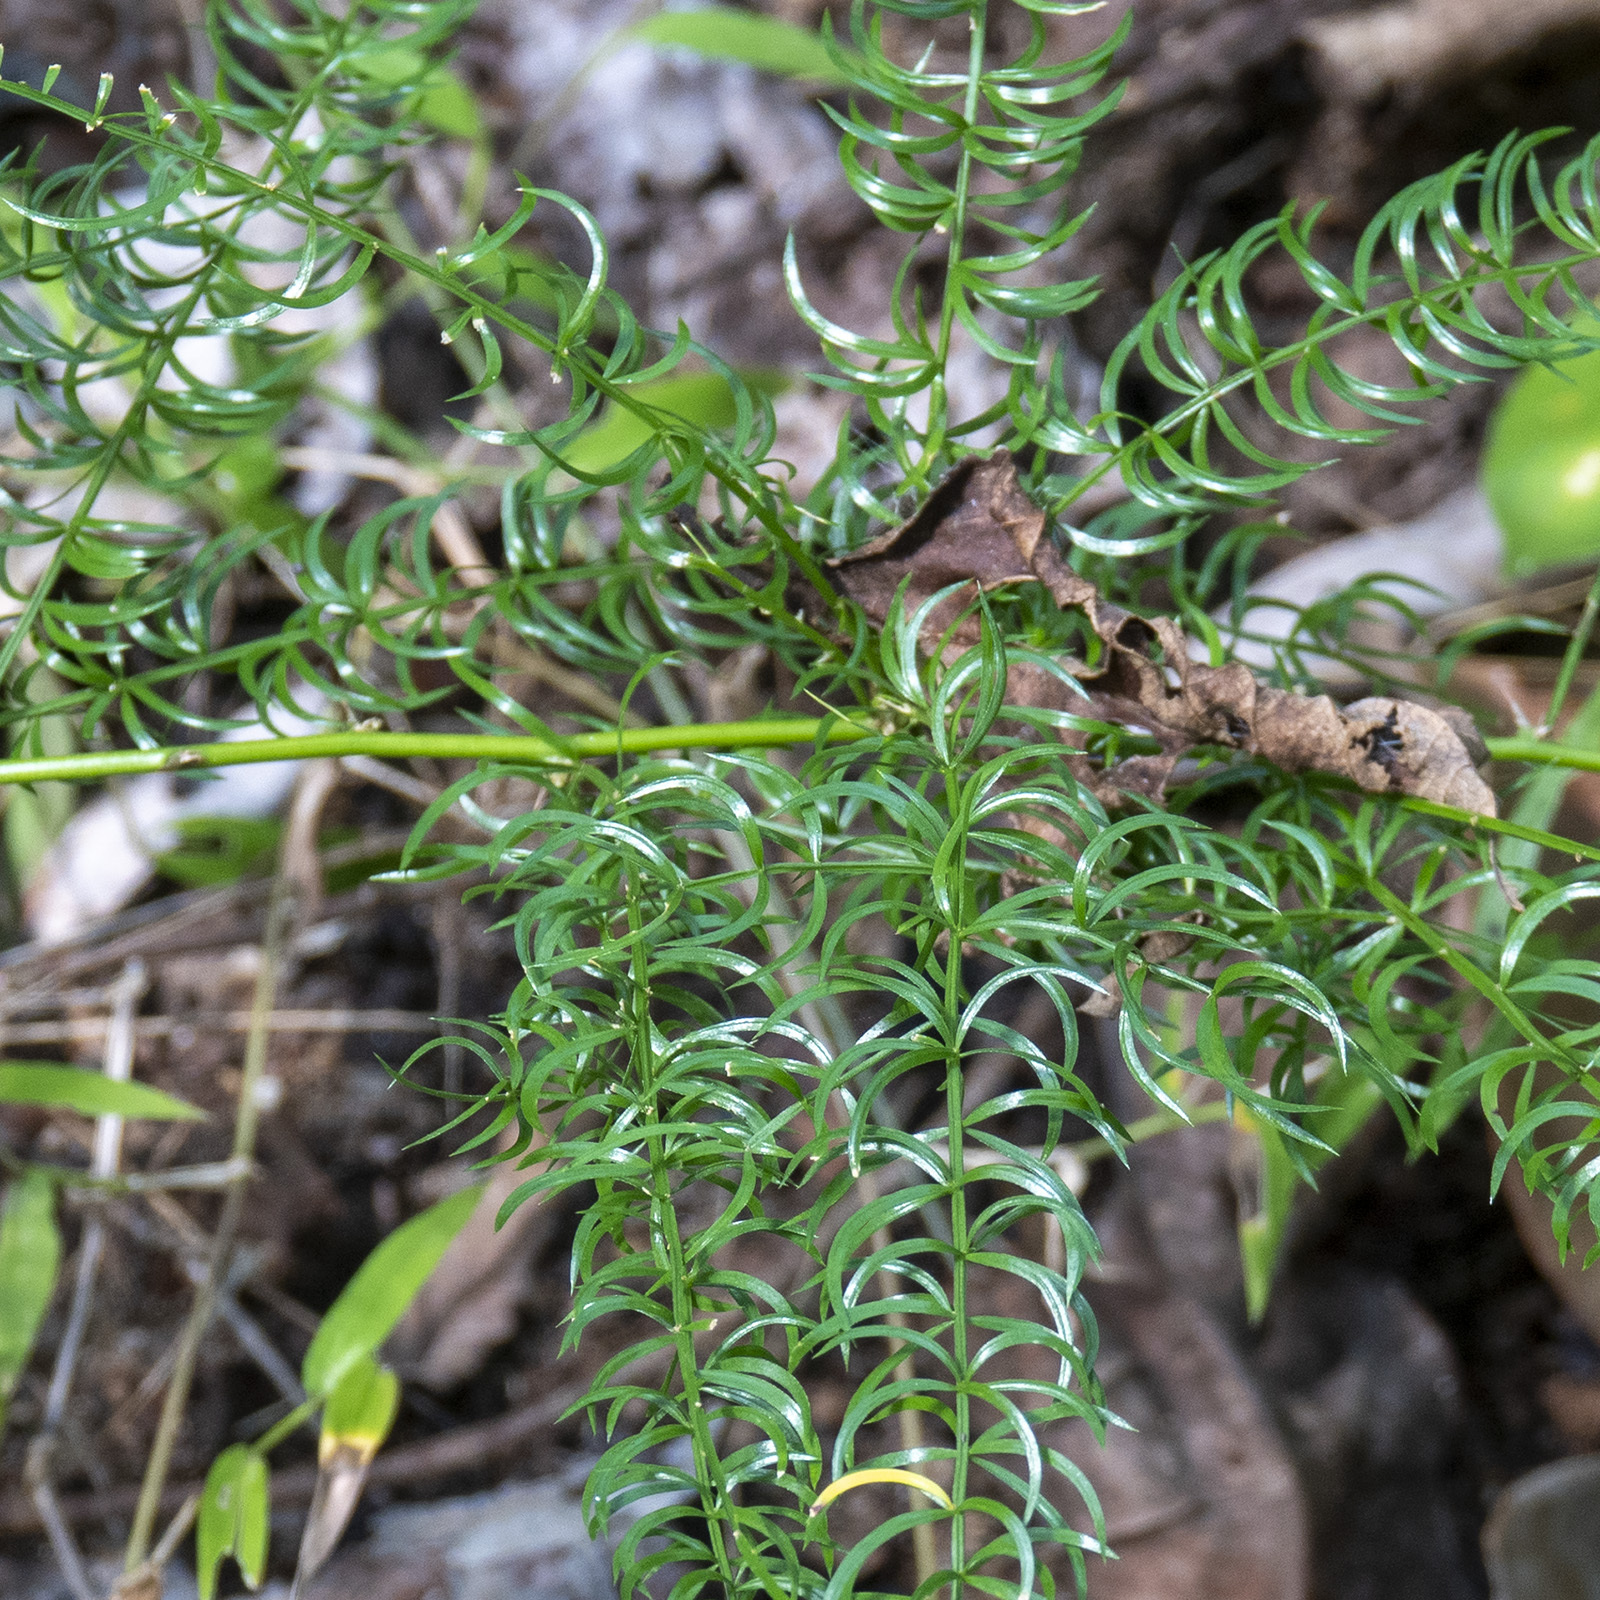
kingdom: Plantae
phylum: Tracheophyta
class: Liliopsida
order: Asparagales
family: Asparagaceae
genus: Asparagus
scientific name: Asparagus cochinchinensis
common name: Chinese asparagus
